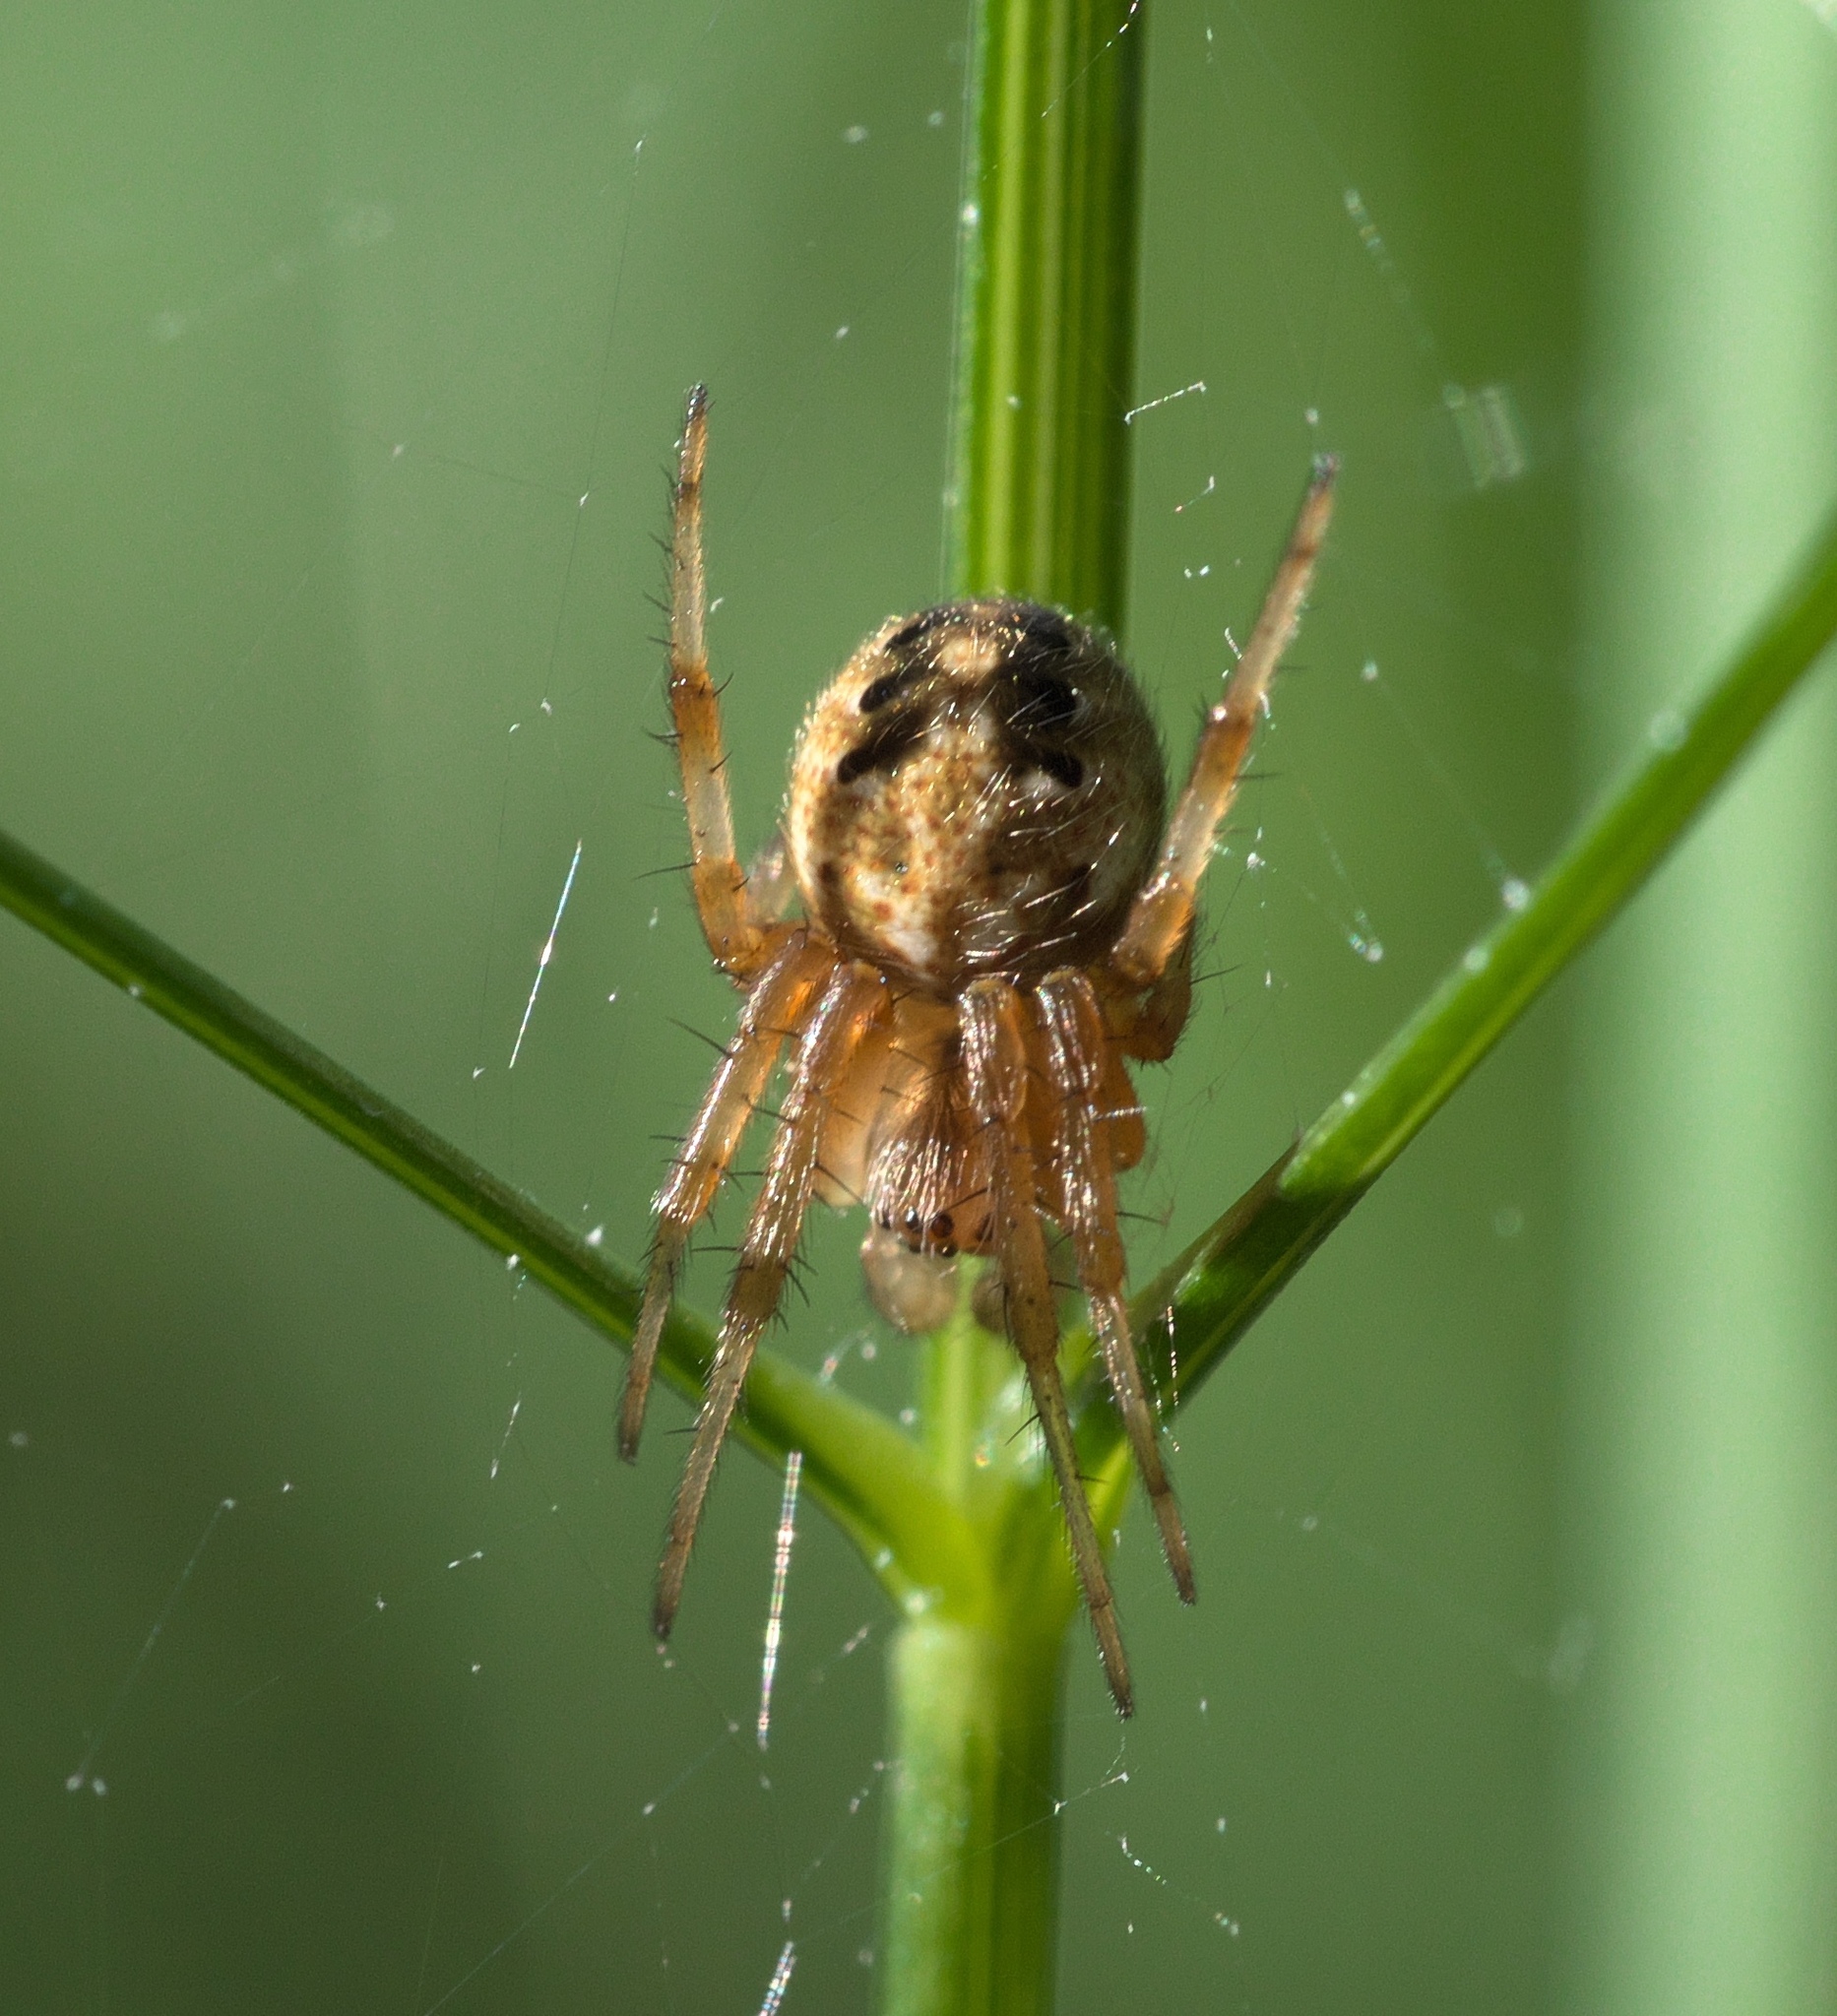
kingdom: Animalia
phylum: Arthropoda
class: Arachnida
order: Araneae
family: Araneidae
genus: Neoscona
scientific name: Neoscona arabesca
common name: Orb weavers
